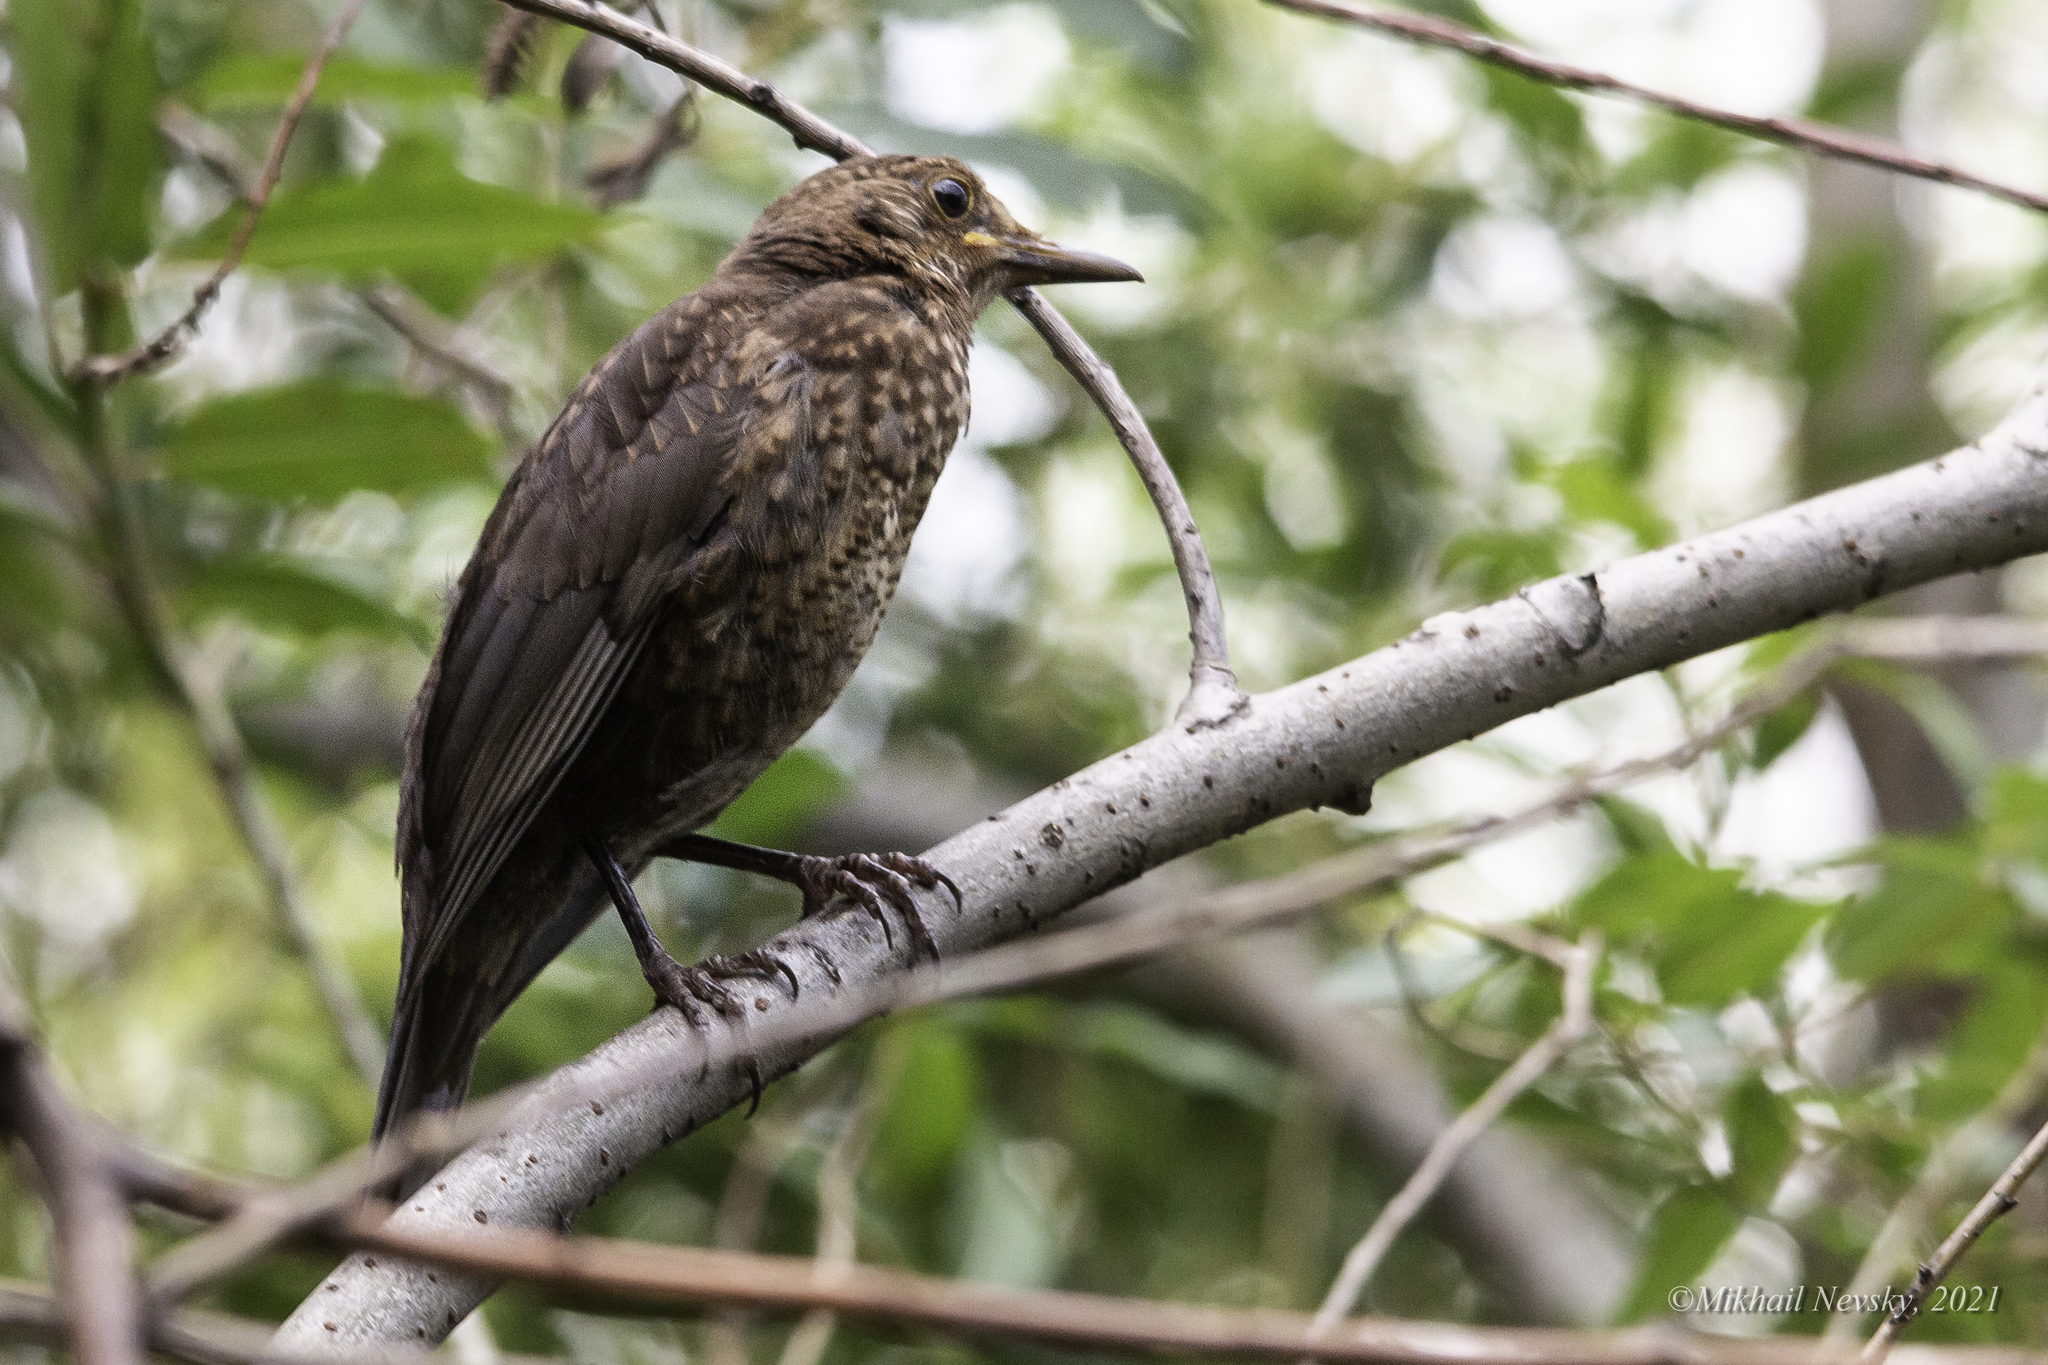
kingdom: Animalia
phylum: Chordata
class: Aves
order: Passeriformes
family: Turdidae
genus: Turdus
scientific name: Turdus merula
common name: Common blackbird
